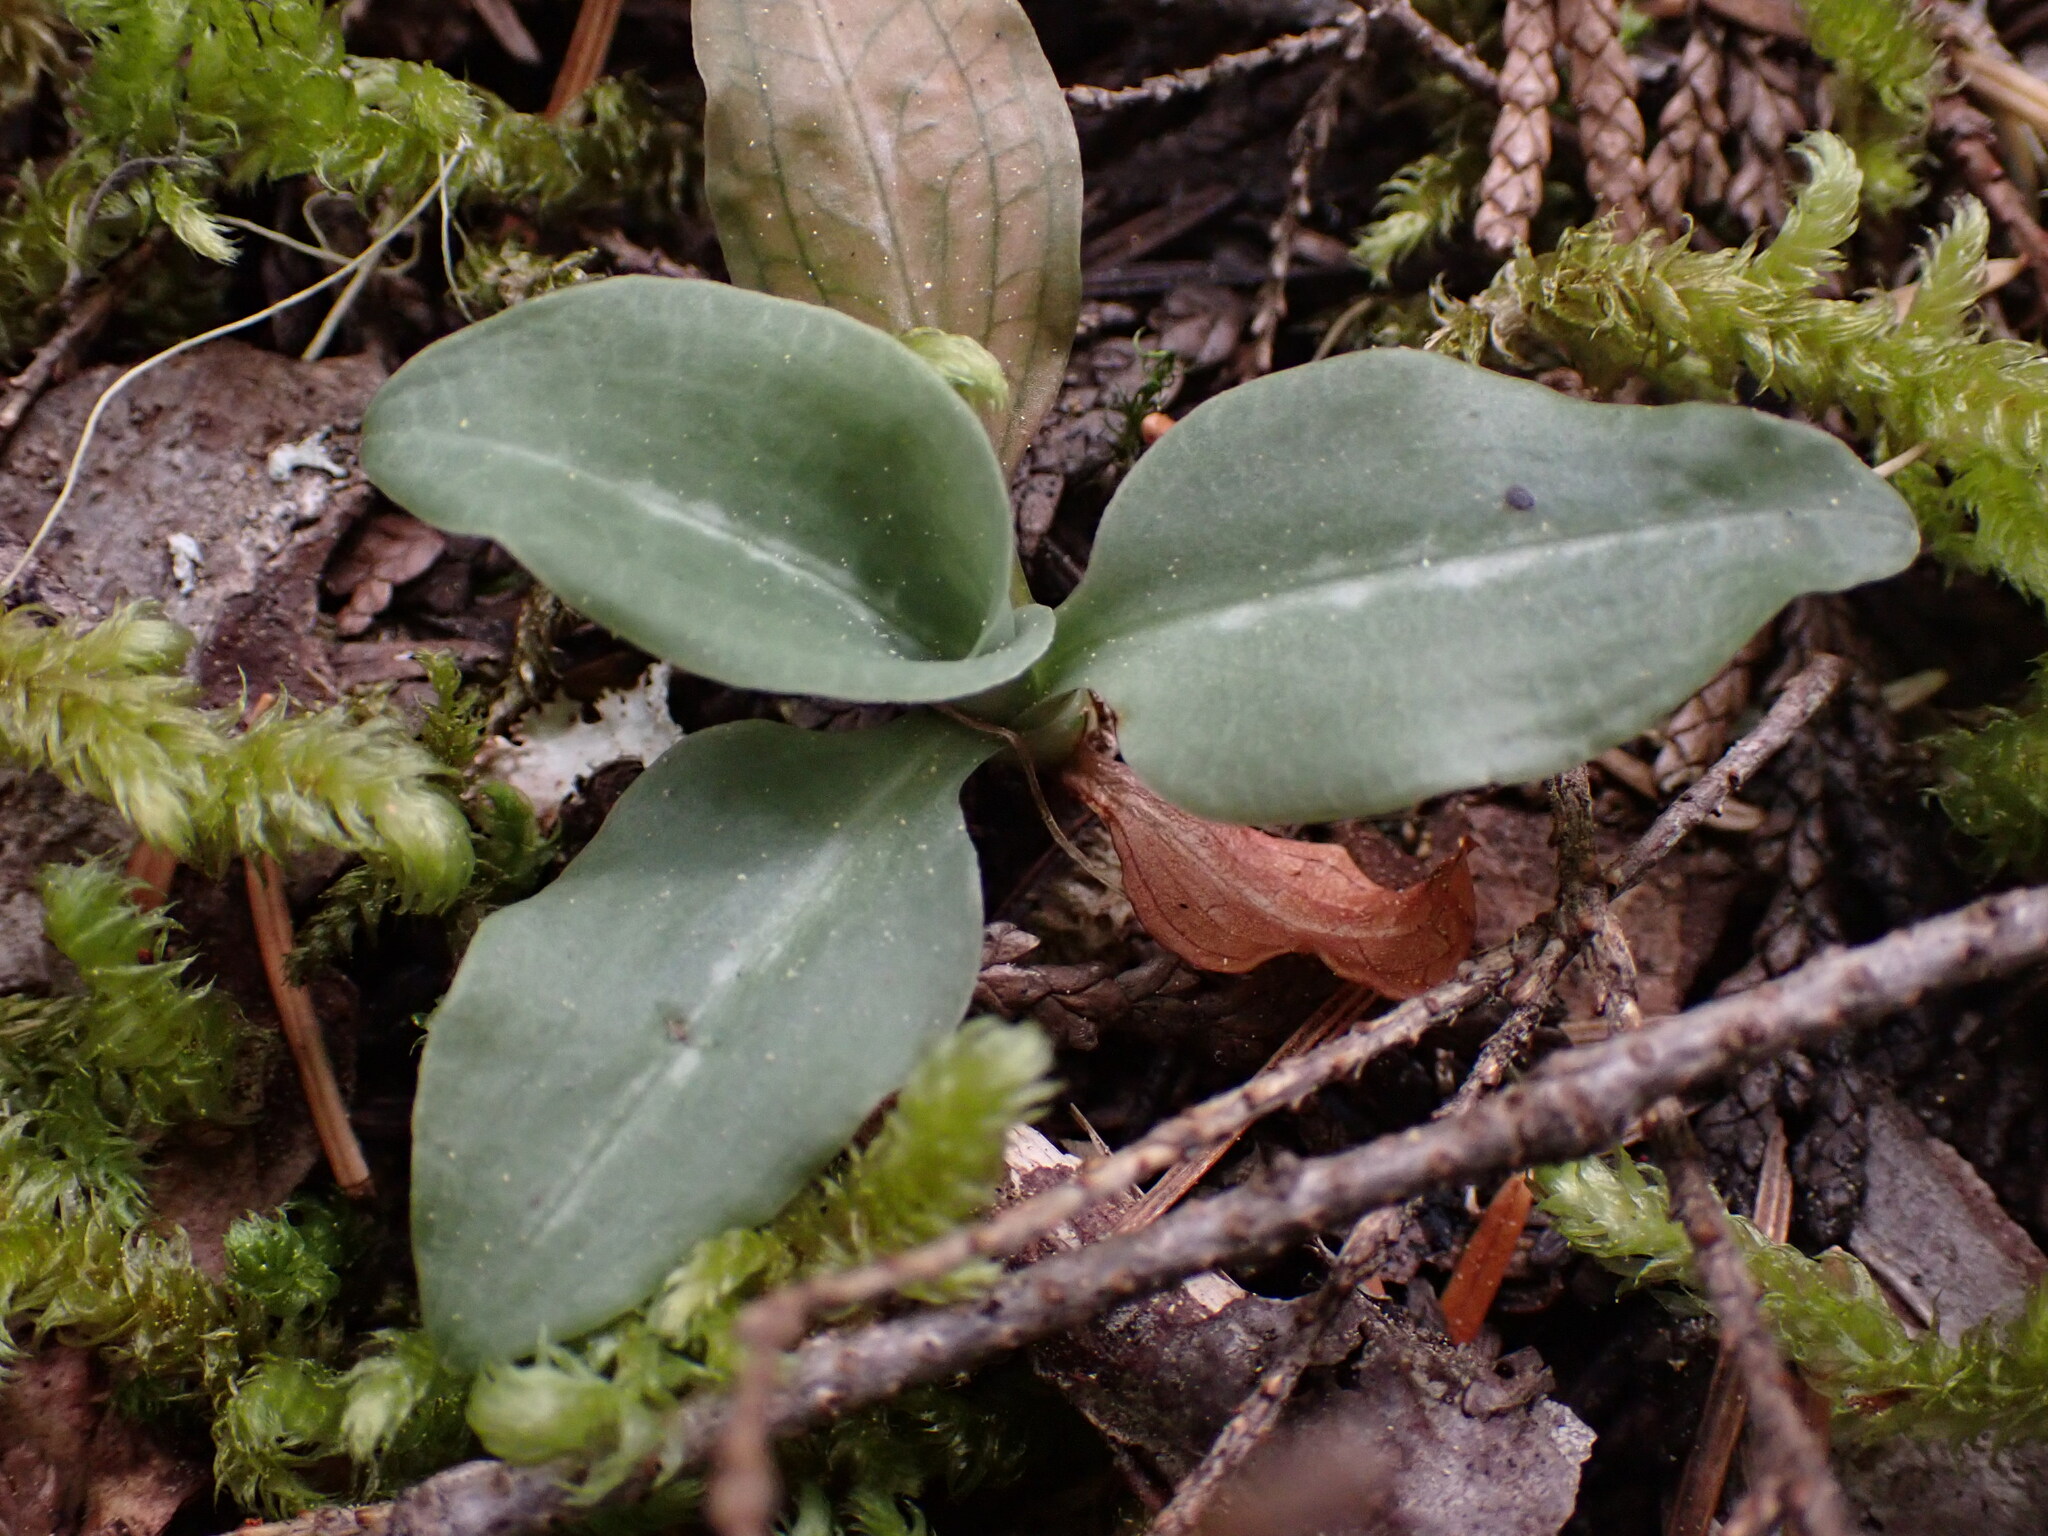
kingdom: Plantae
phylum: Tracheophyta
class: Liliopsida
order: Asparagales
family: Orchidaceae
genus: Goodyera
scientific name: Goodyera oblongifolia
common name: Giant rattlesnake-plantain
